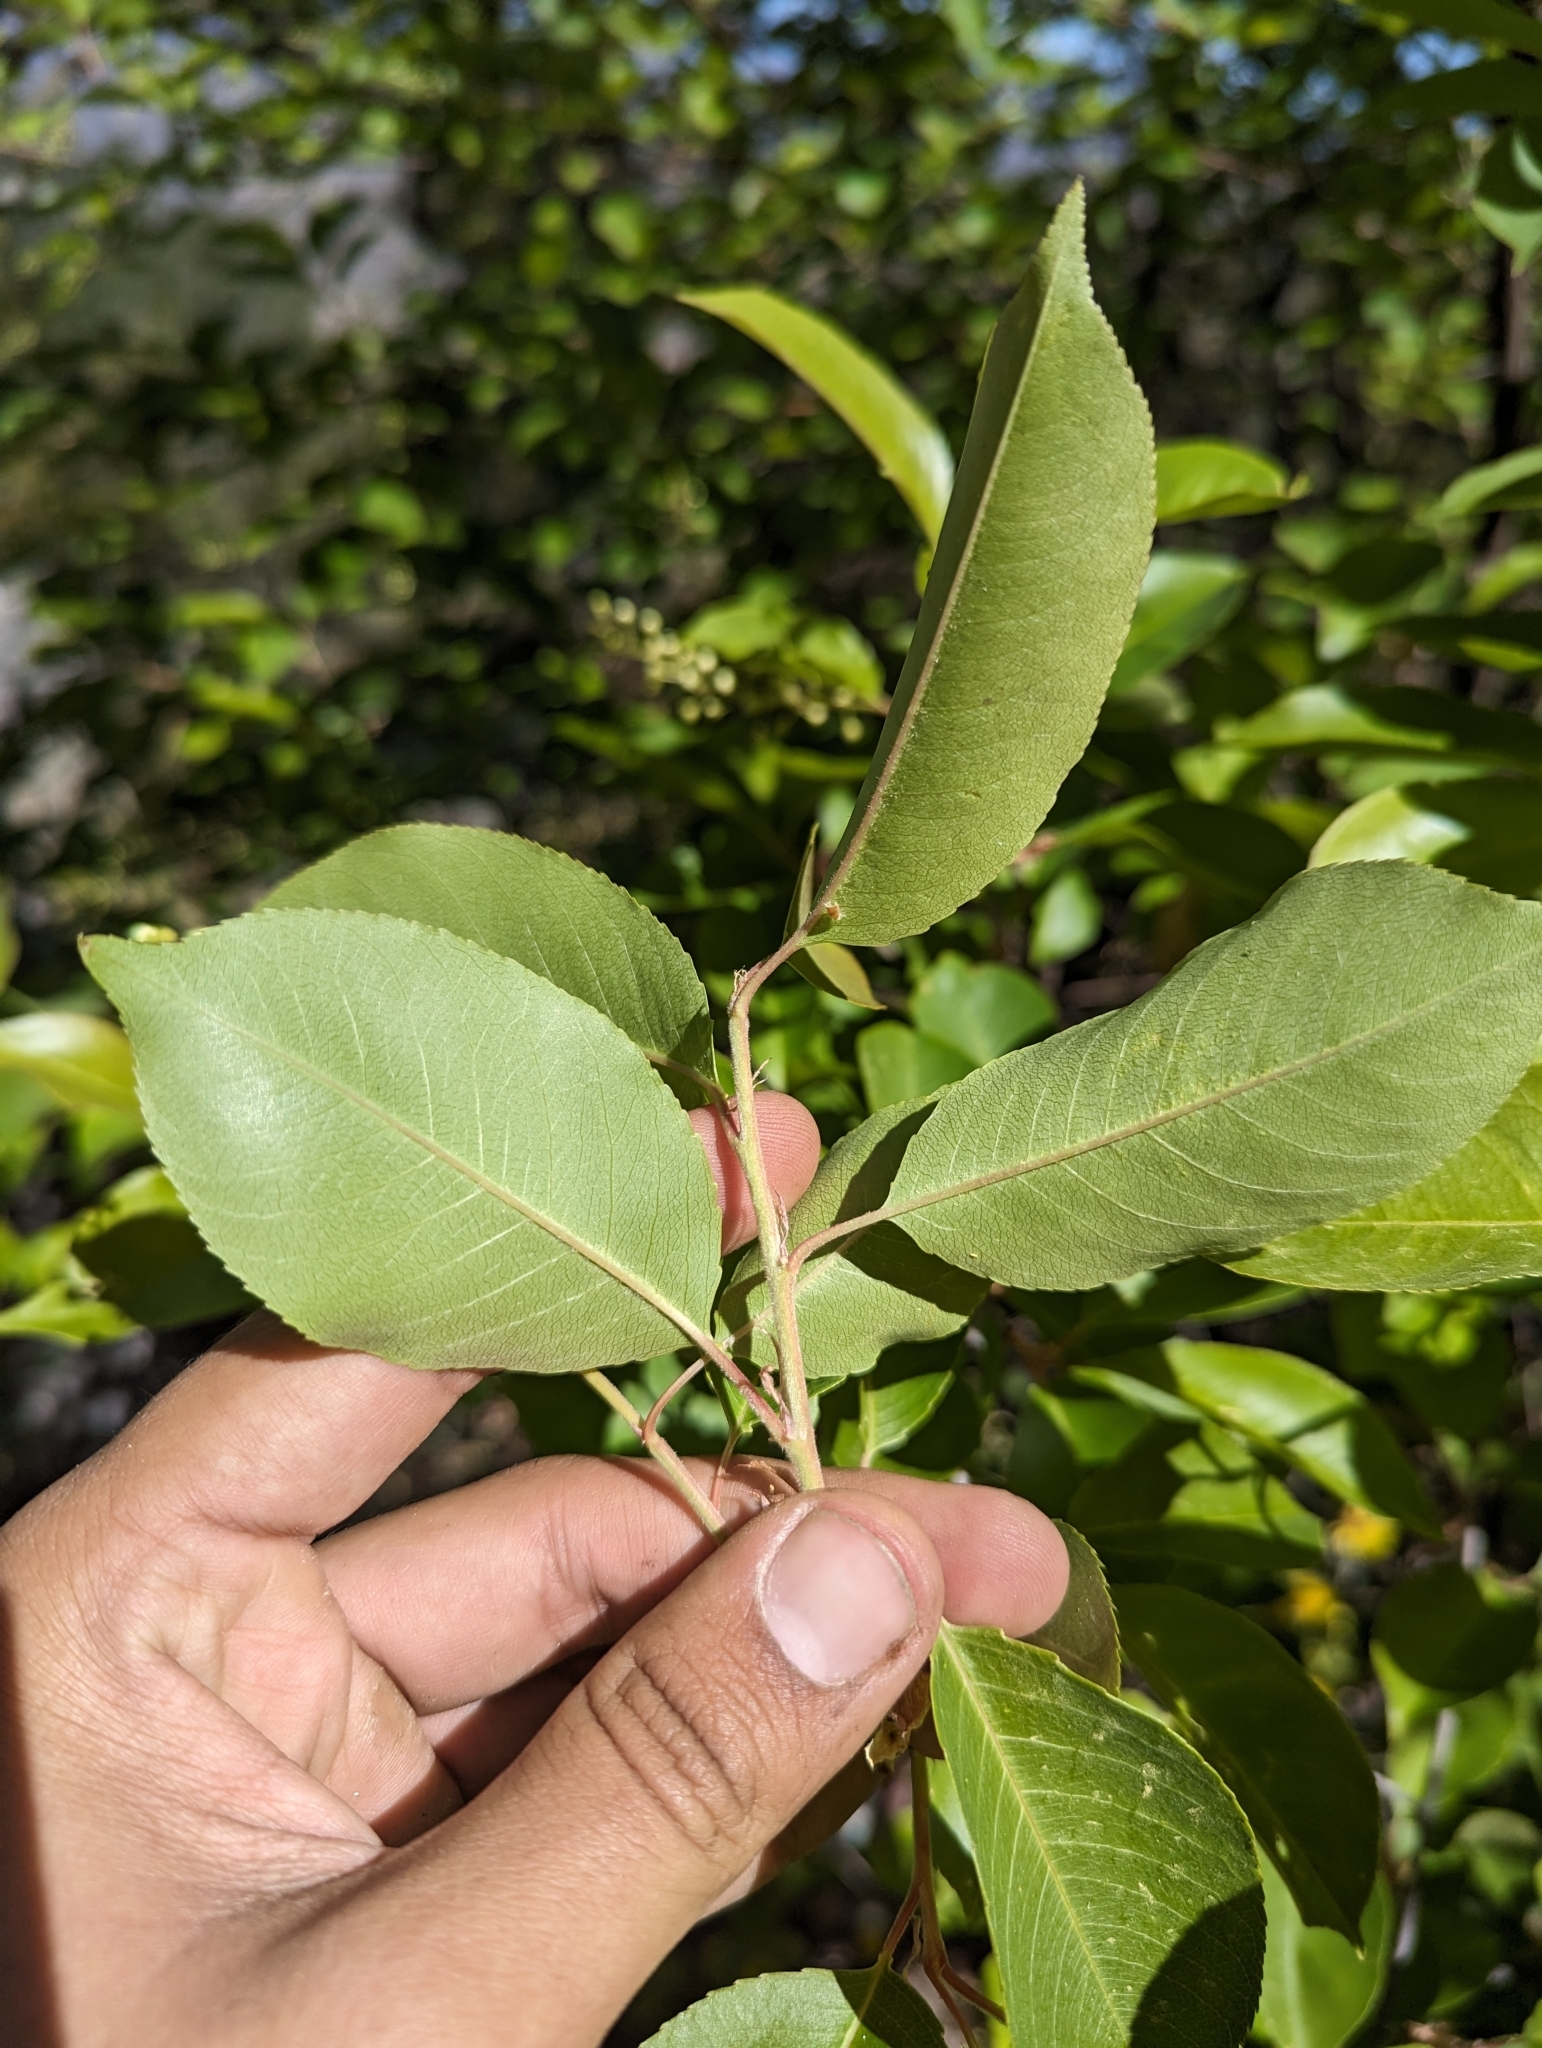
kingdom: Plantae
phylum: Tracheophyta
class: Magnoliopsida
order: Rosales
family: Rosaceae
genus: Prunus
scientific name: Prunus serotina
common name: Black cherry
